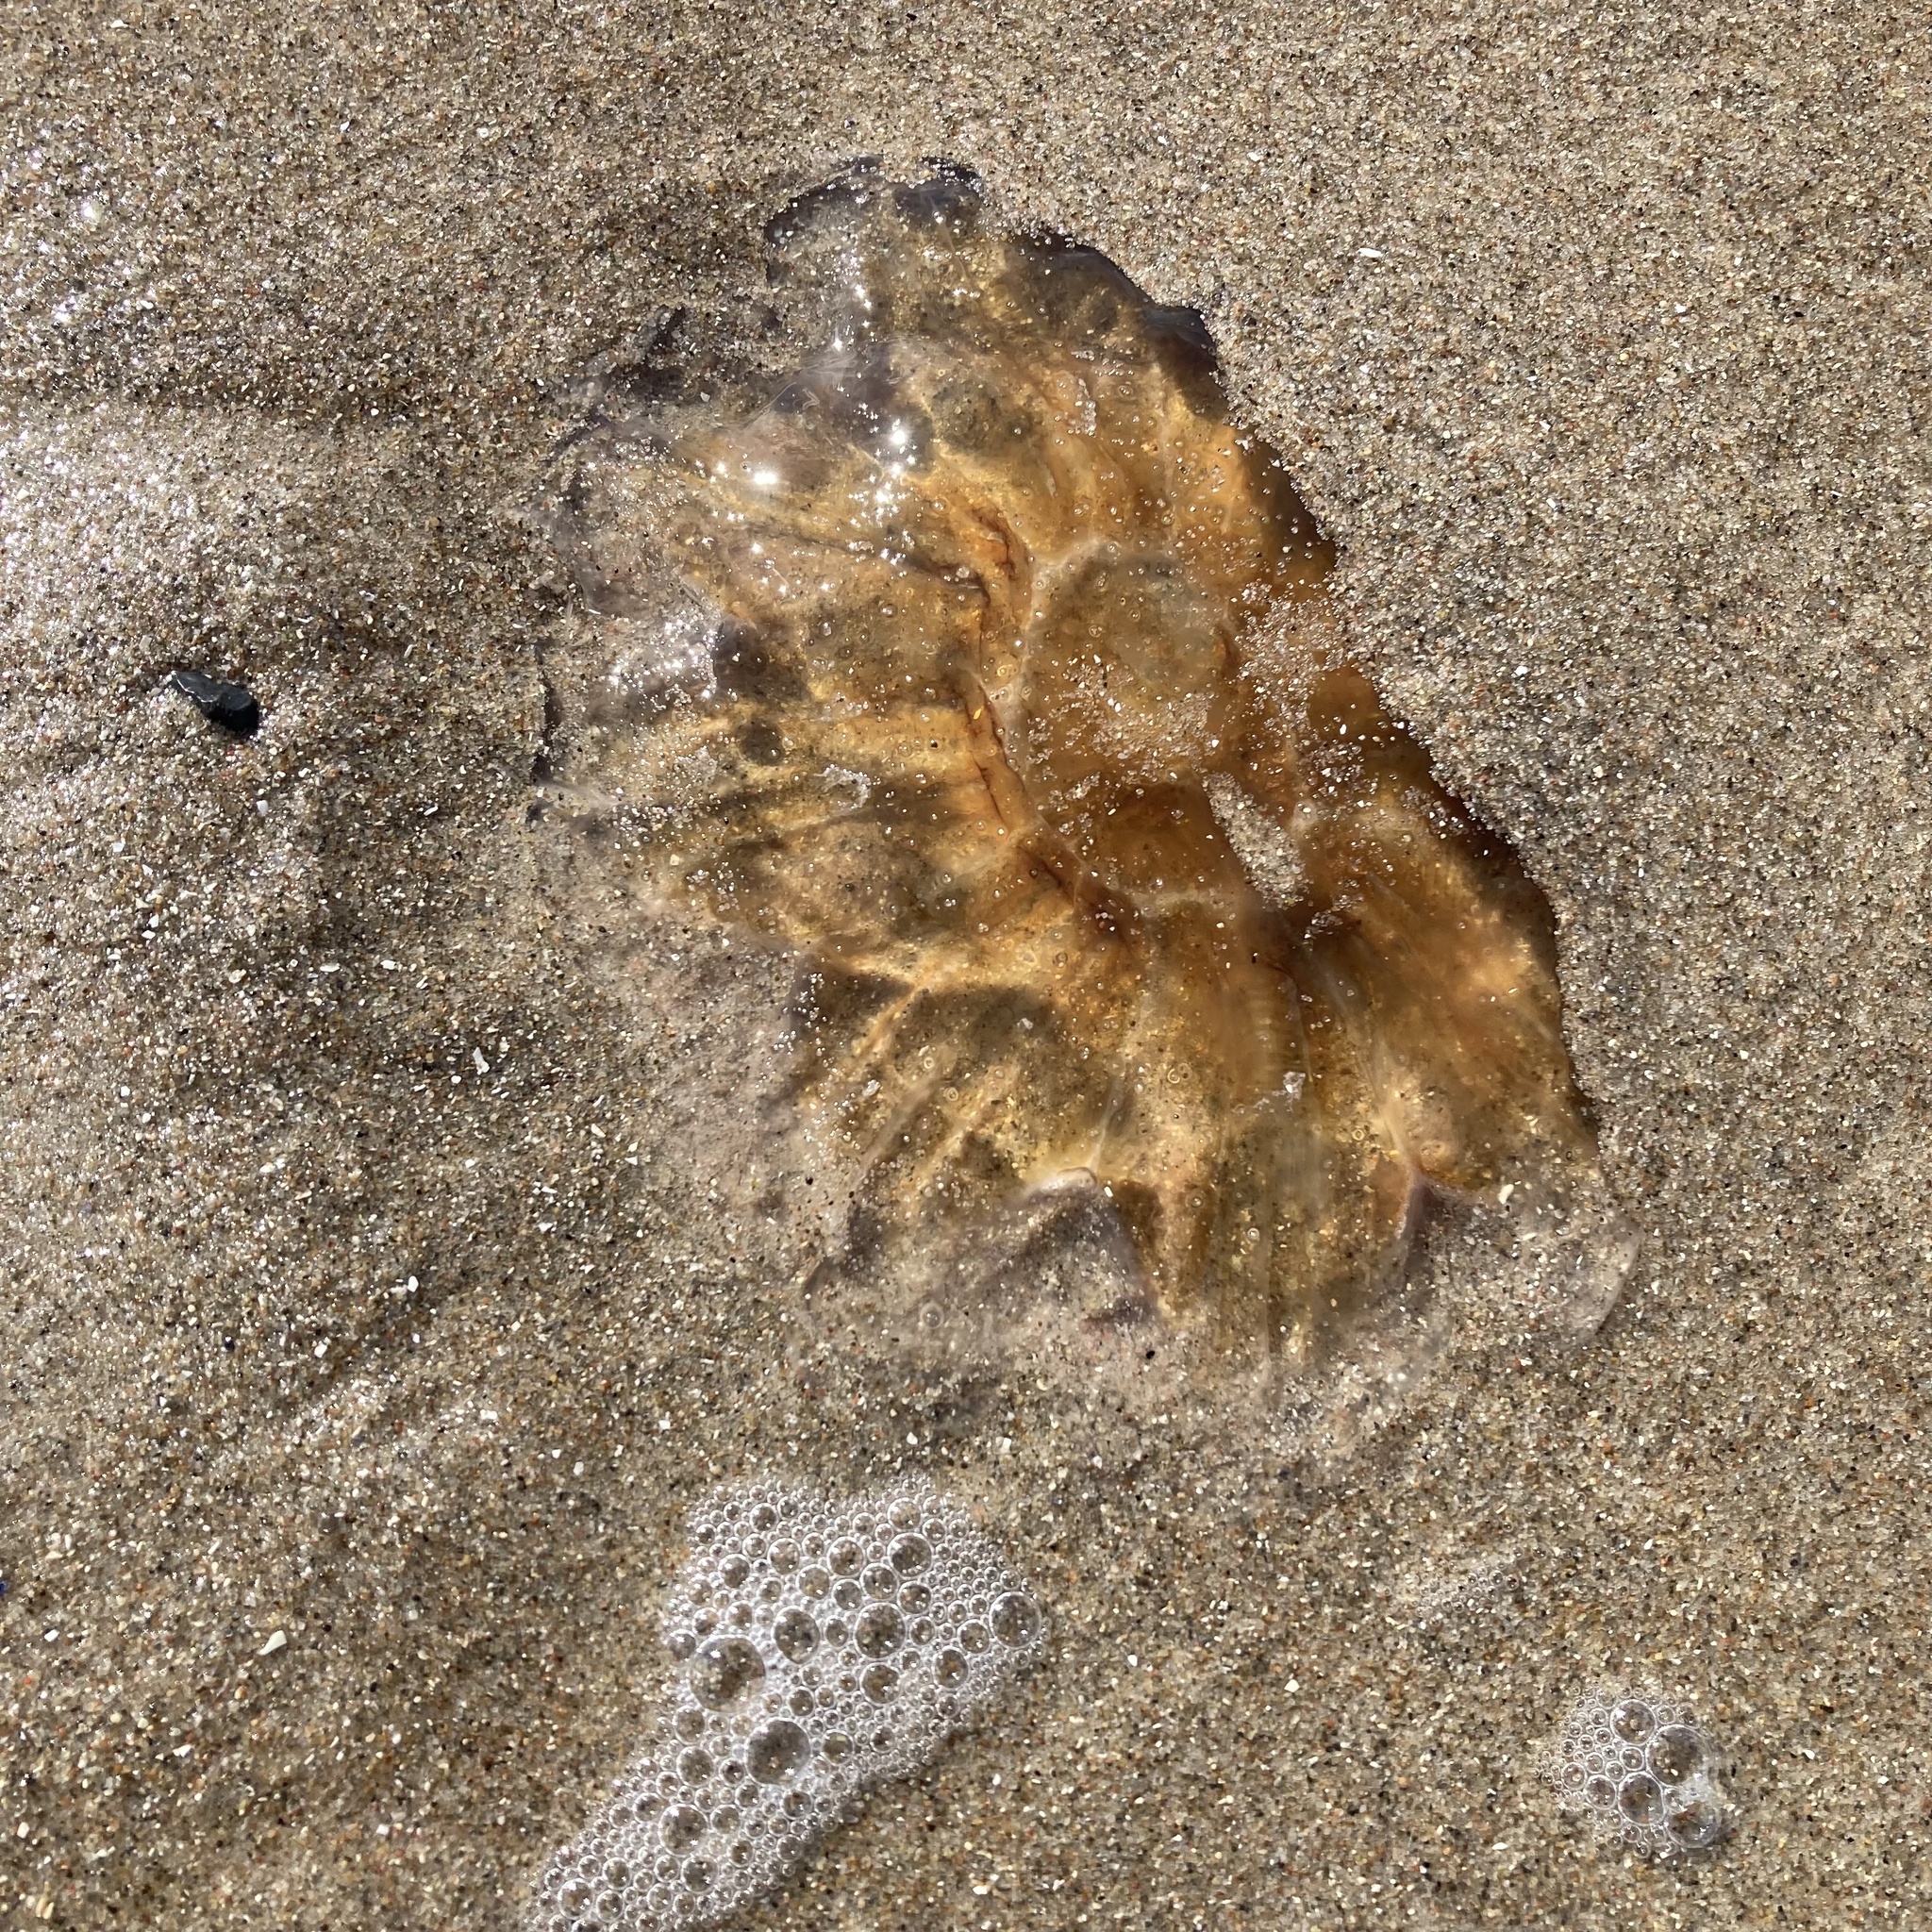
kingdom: Animalia
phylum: Cnidaria
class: Scyphozoa
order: Semaeostomeae
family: Cyaneidae
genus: Cyanea
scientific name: Cyanea capillata
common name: Lion's mane jellyfish
